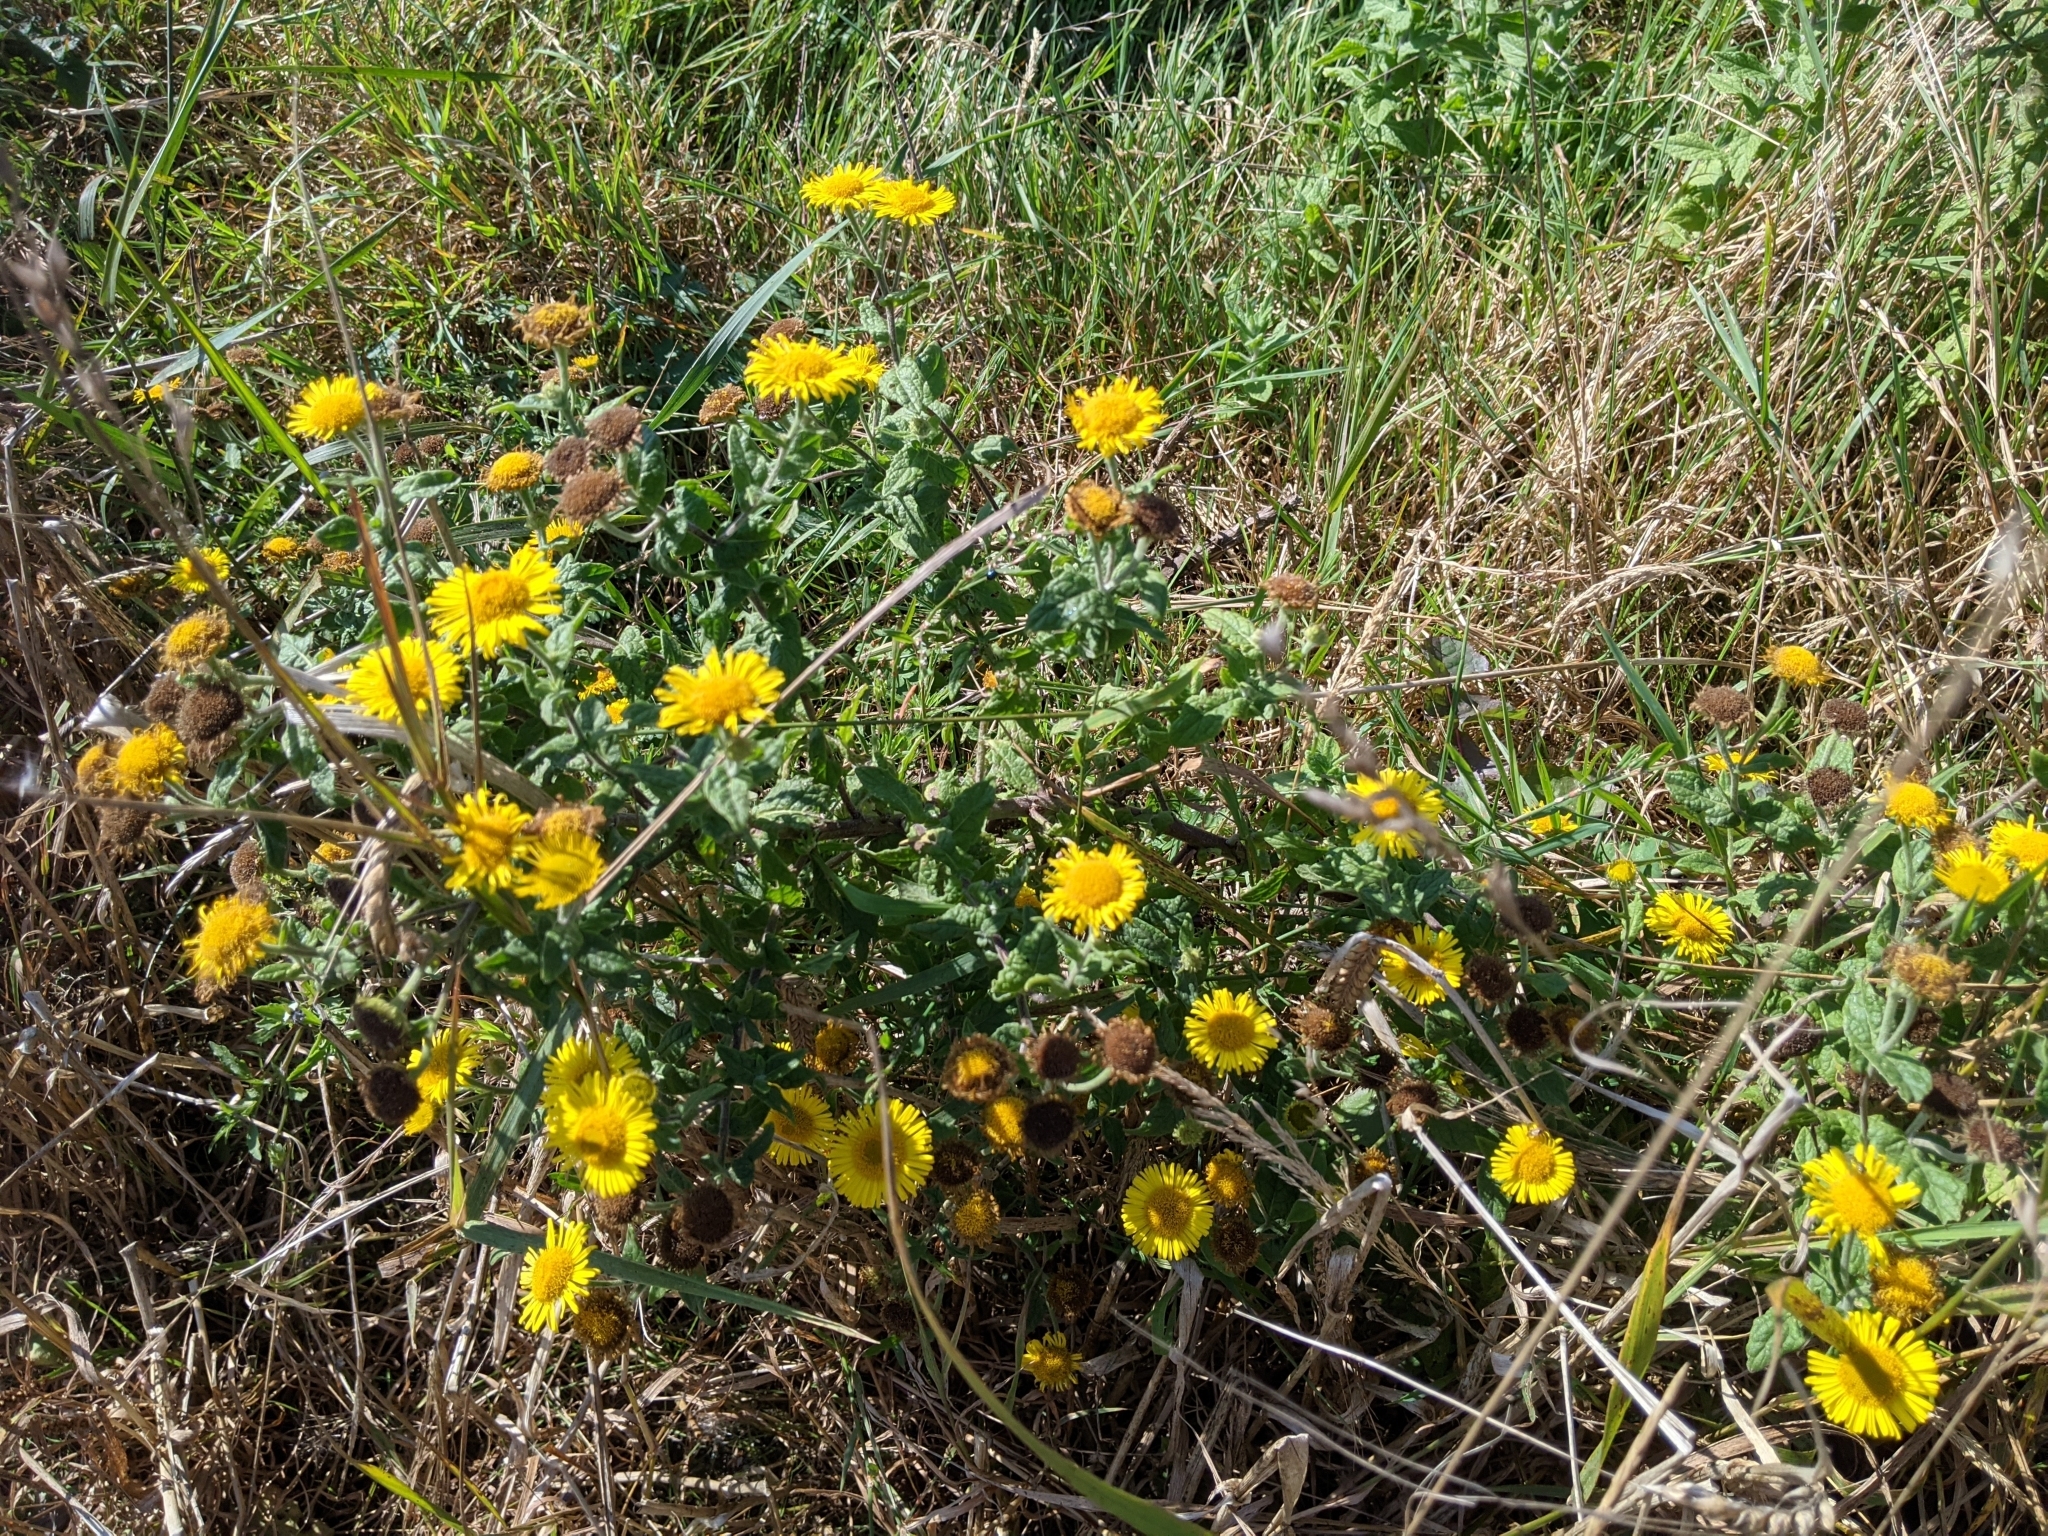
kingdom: Plantae
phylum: Tracheophyta
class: Magnoliopsida
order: Asterales
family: Asteraceae
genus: Pulicaria
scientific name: Pulicaria dysenterica
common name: Common fleabane
